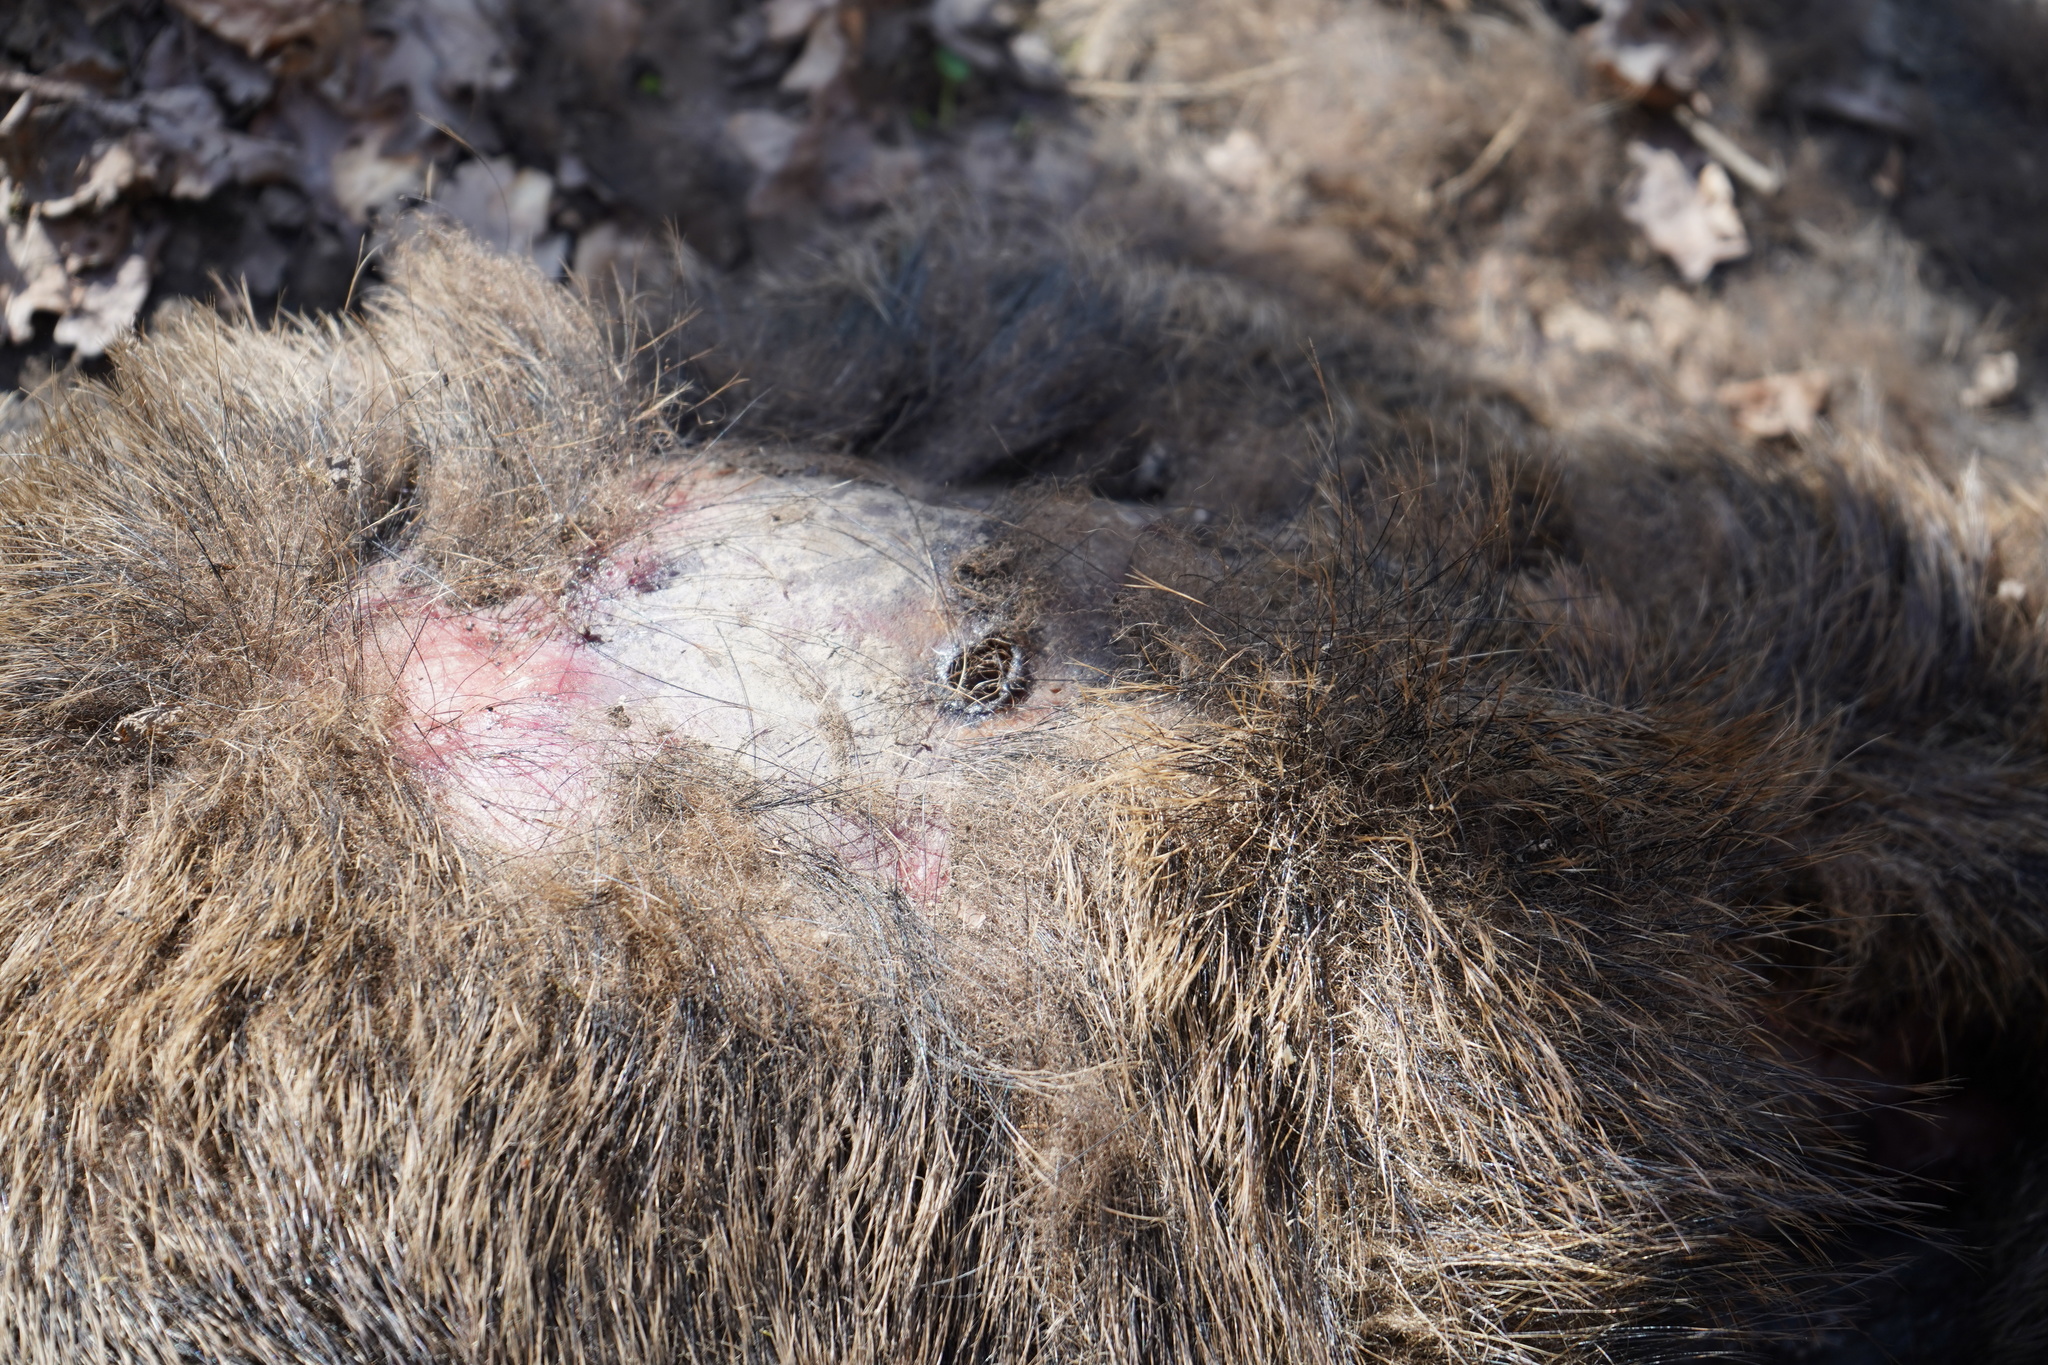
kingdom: Animalia
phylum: Chordata
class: Mammalia
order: Artiodactyla
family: Suidae
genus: Sus
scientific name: Sus scrofa
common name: Wild boar
